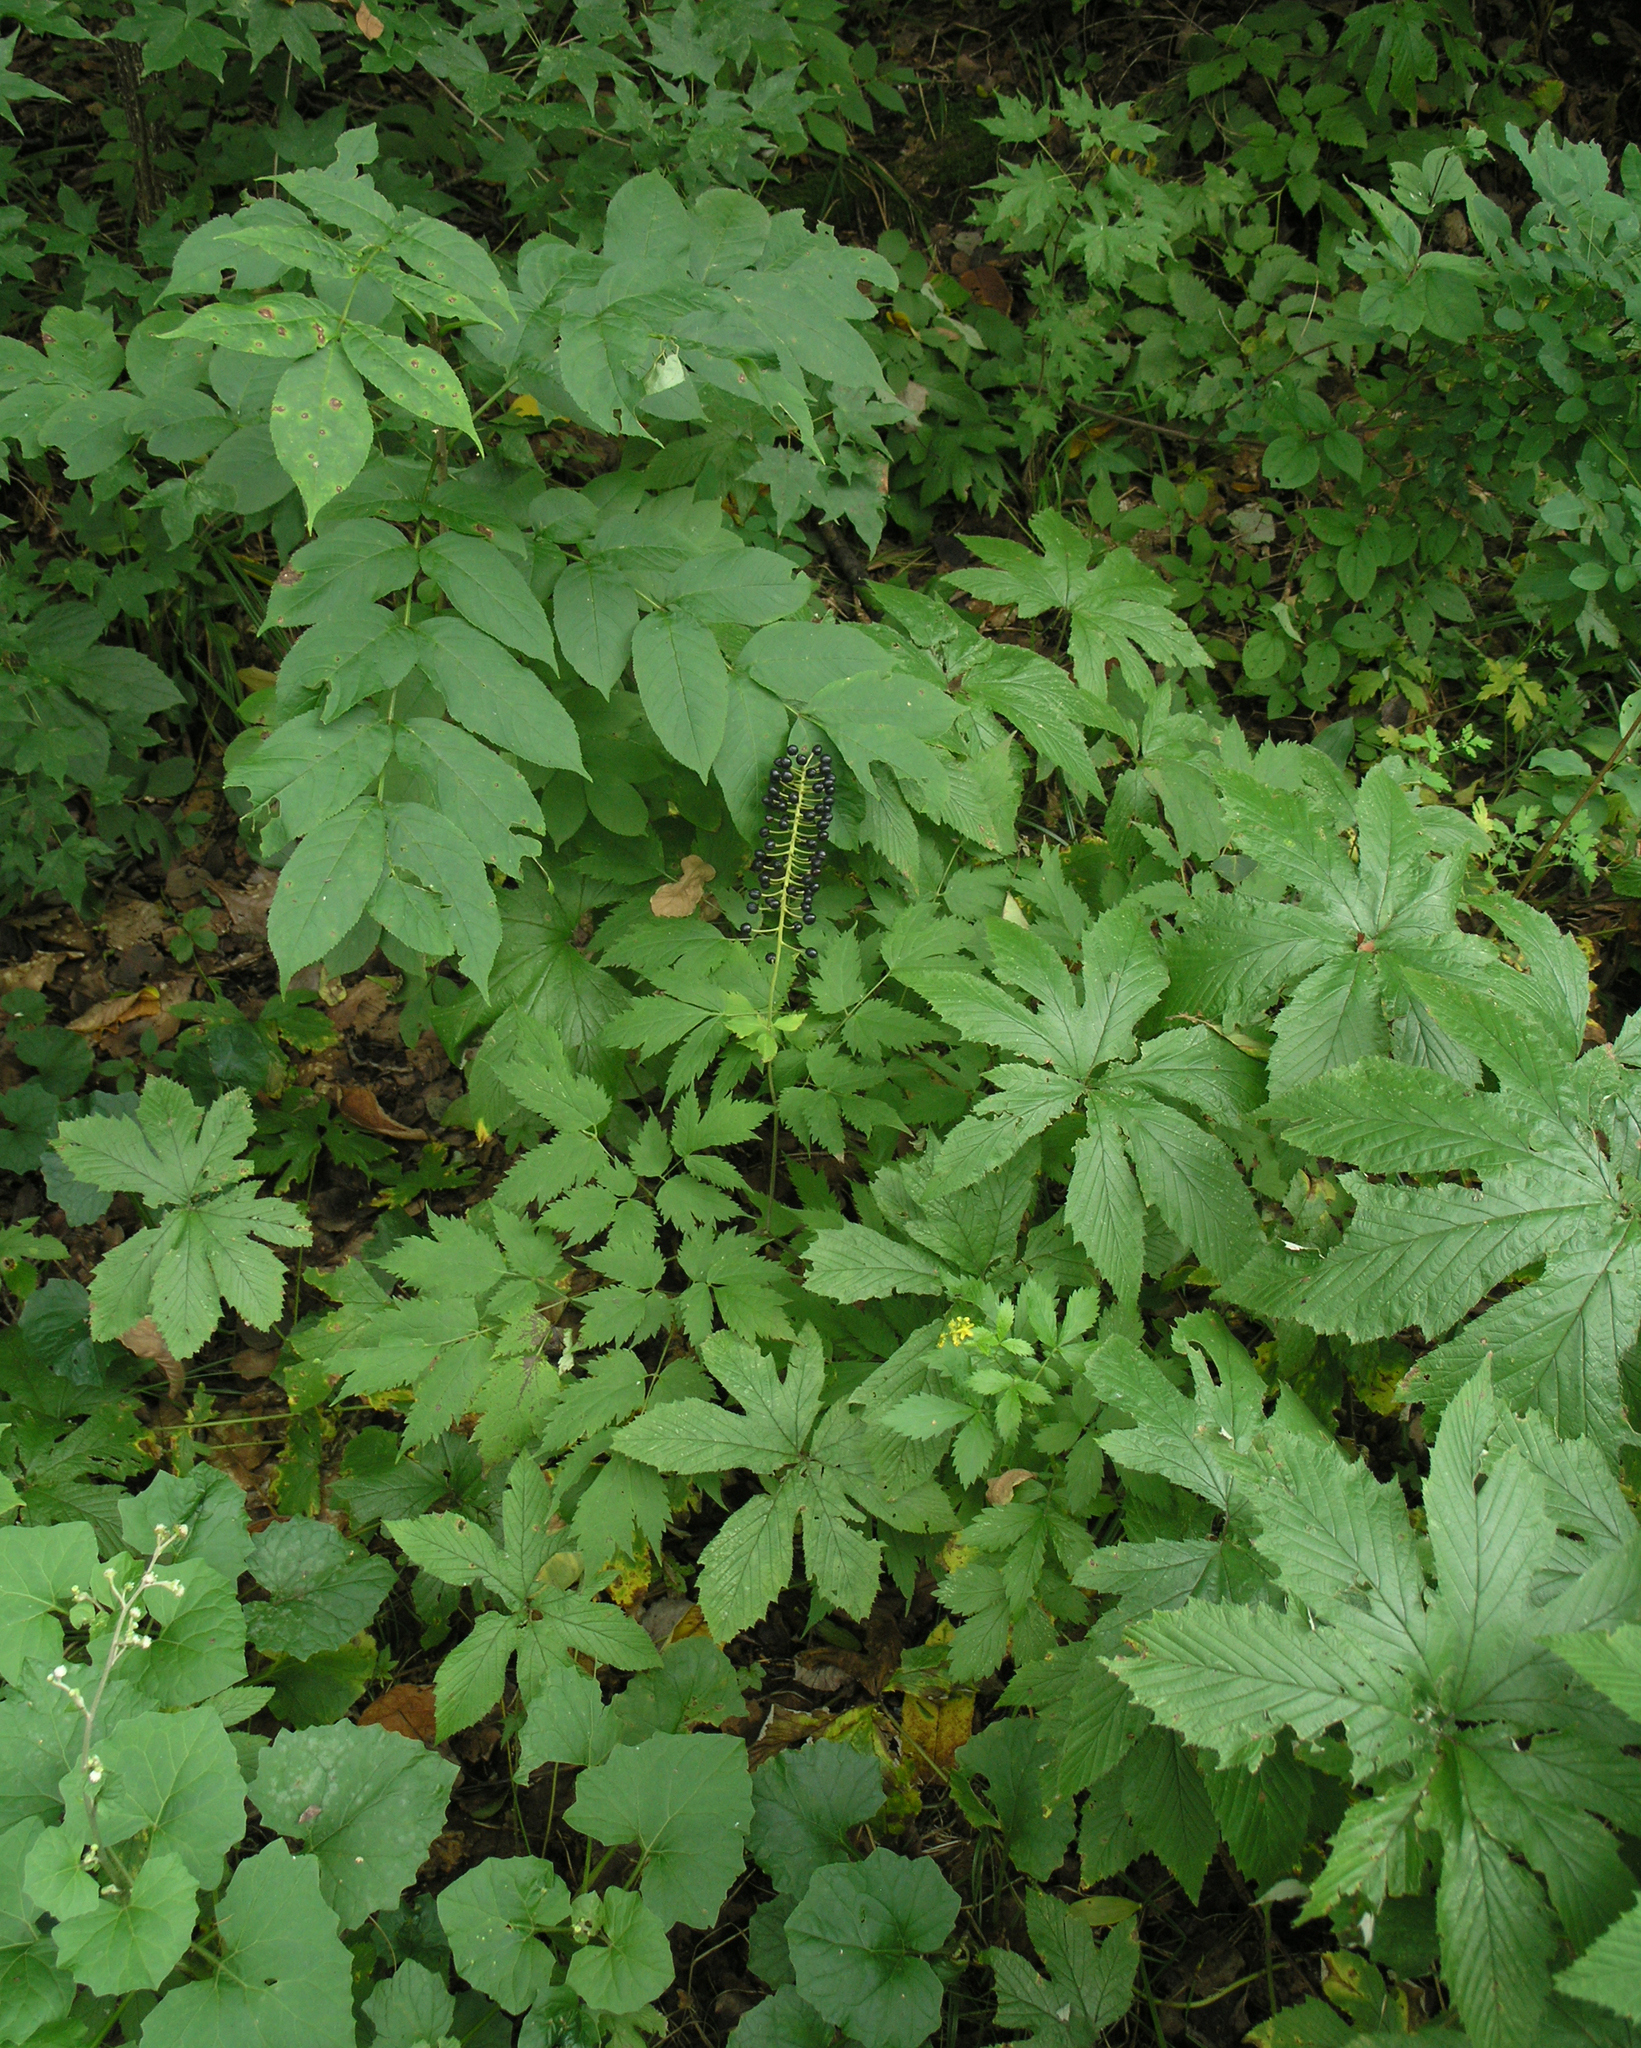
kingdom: Plantae
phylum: Tracheophyta
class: Magnoliopsida
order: Ranunculales
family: Ranunculaceae
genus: Actaea
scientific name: Actaea asiatica
